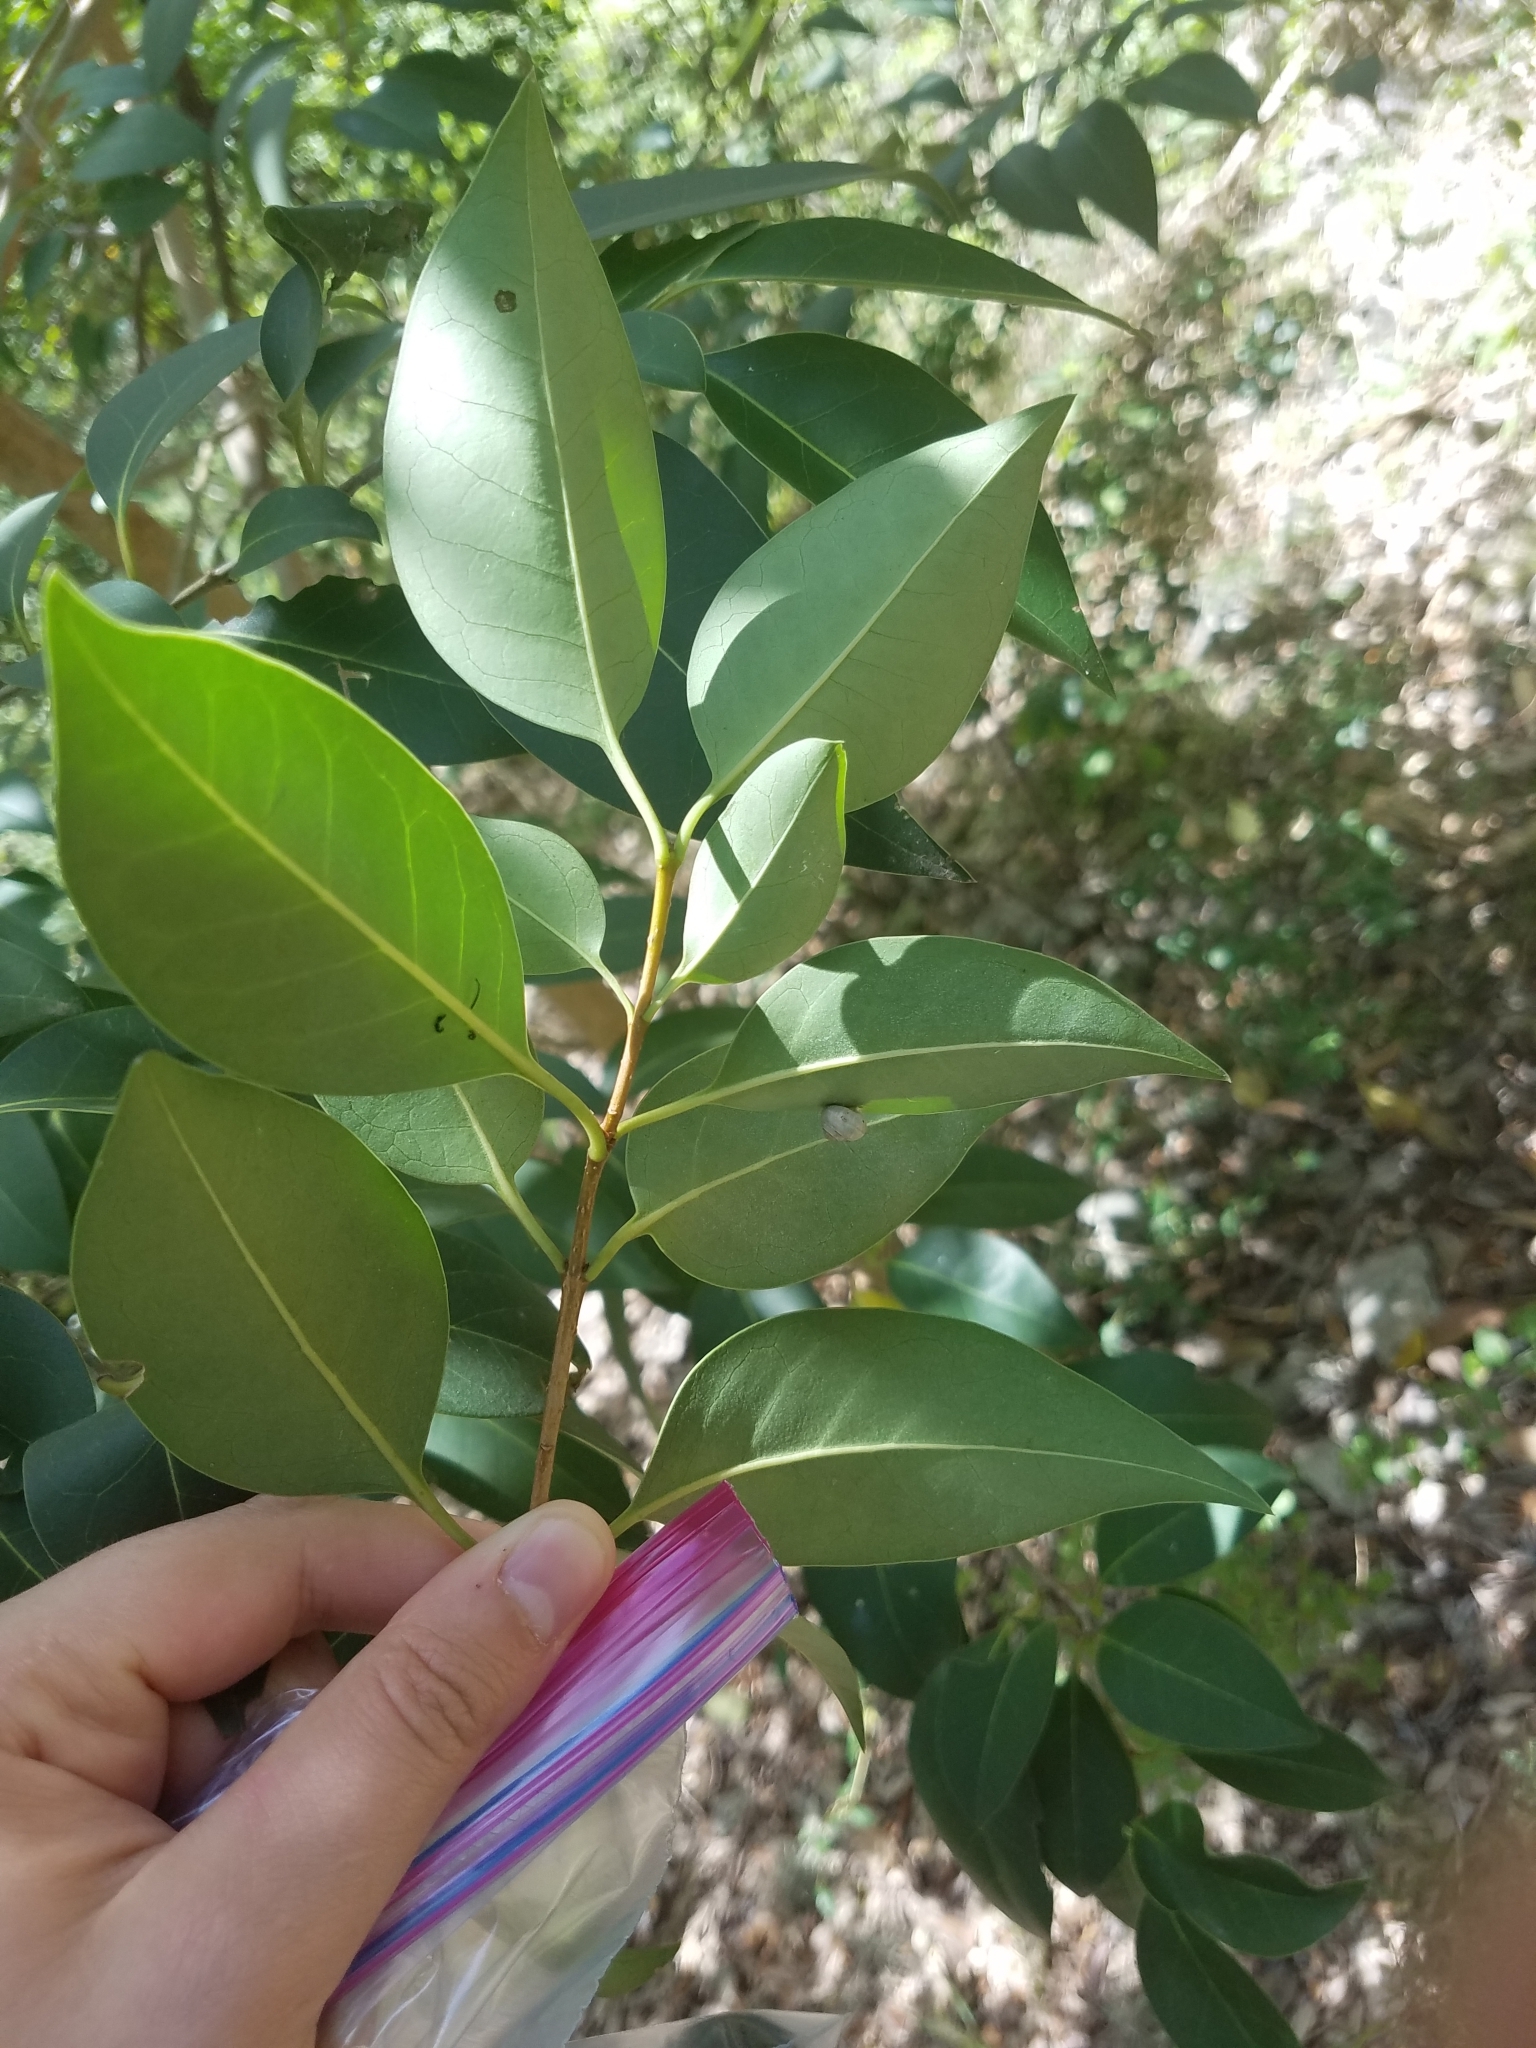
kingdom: Plantae
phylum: Tracheophyta
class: Magnoliopsida
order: Lamiales
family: Oleaceae
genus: Ligustrum
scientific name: Ligustrum lucidum
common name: Glossy privet
